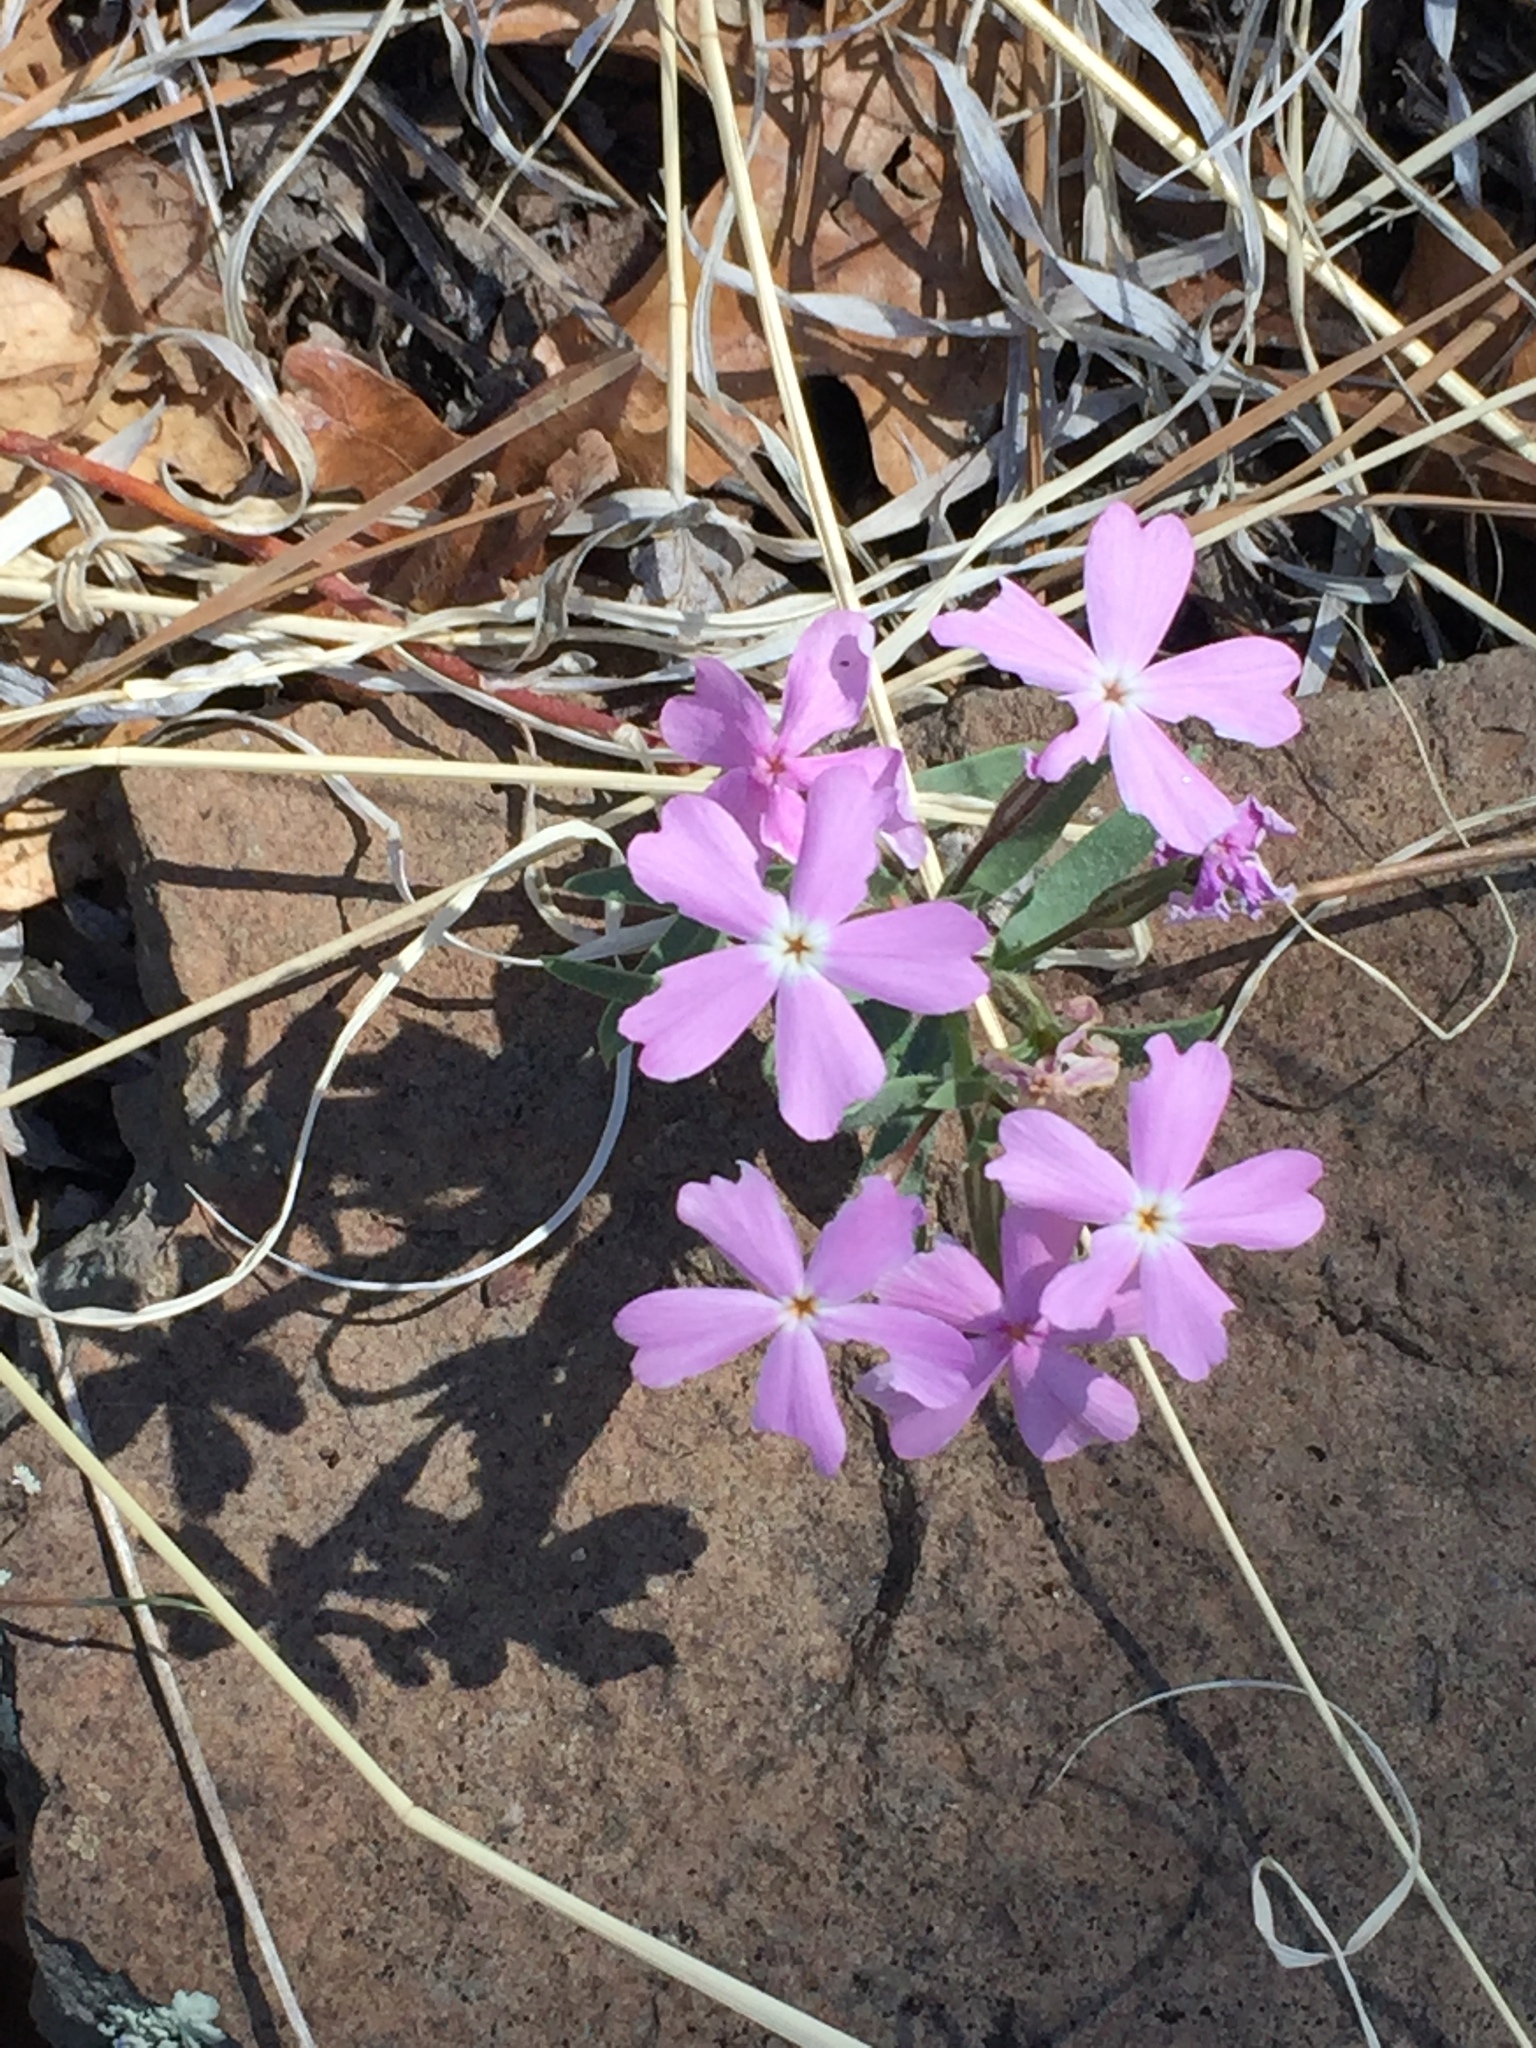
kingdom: Plantae
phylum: Tracheophyta
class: Magnoliopsida
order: Ericales
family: Polemoniaceae
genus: Phlox
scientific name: Phlox woodhousei
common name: Star phlox
